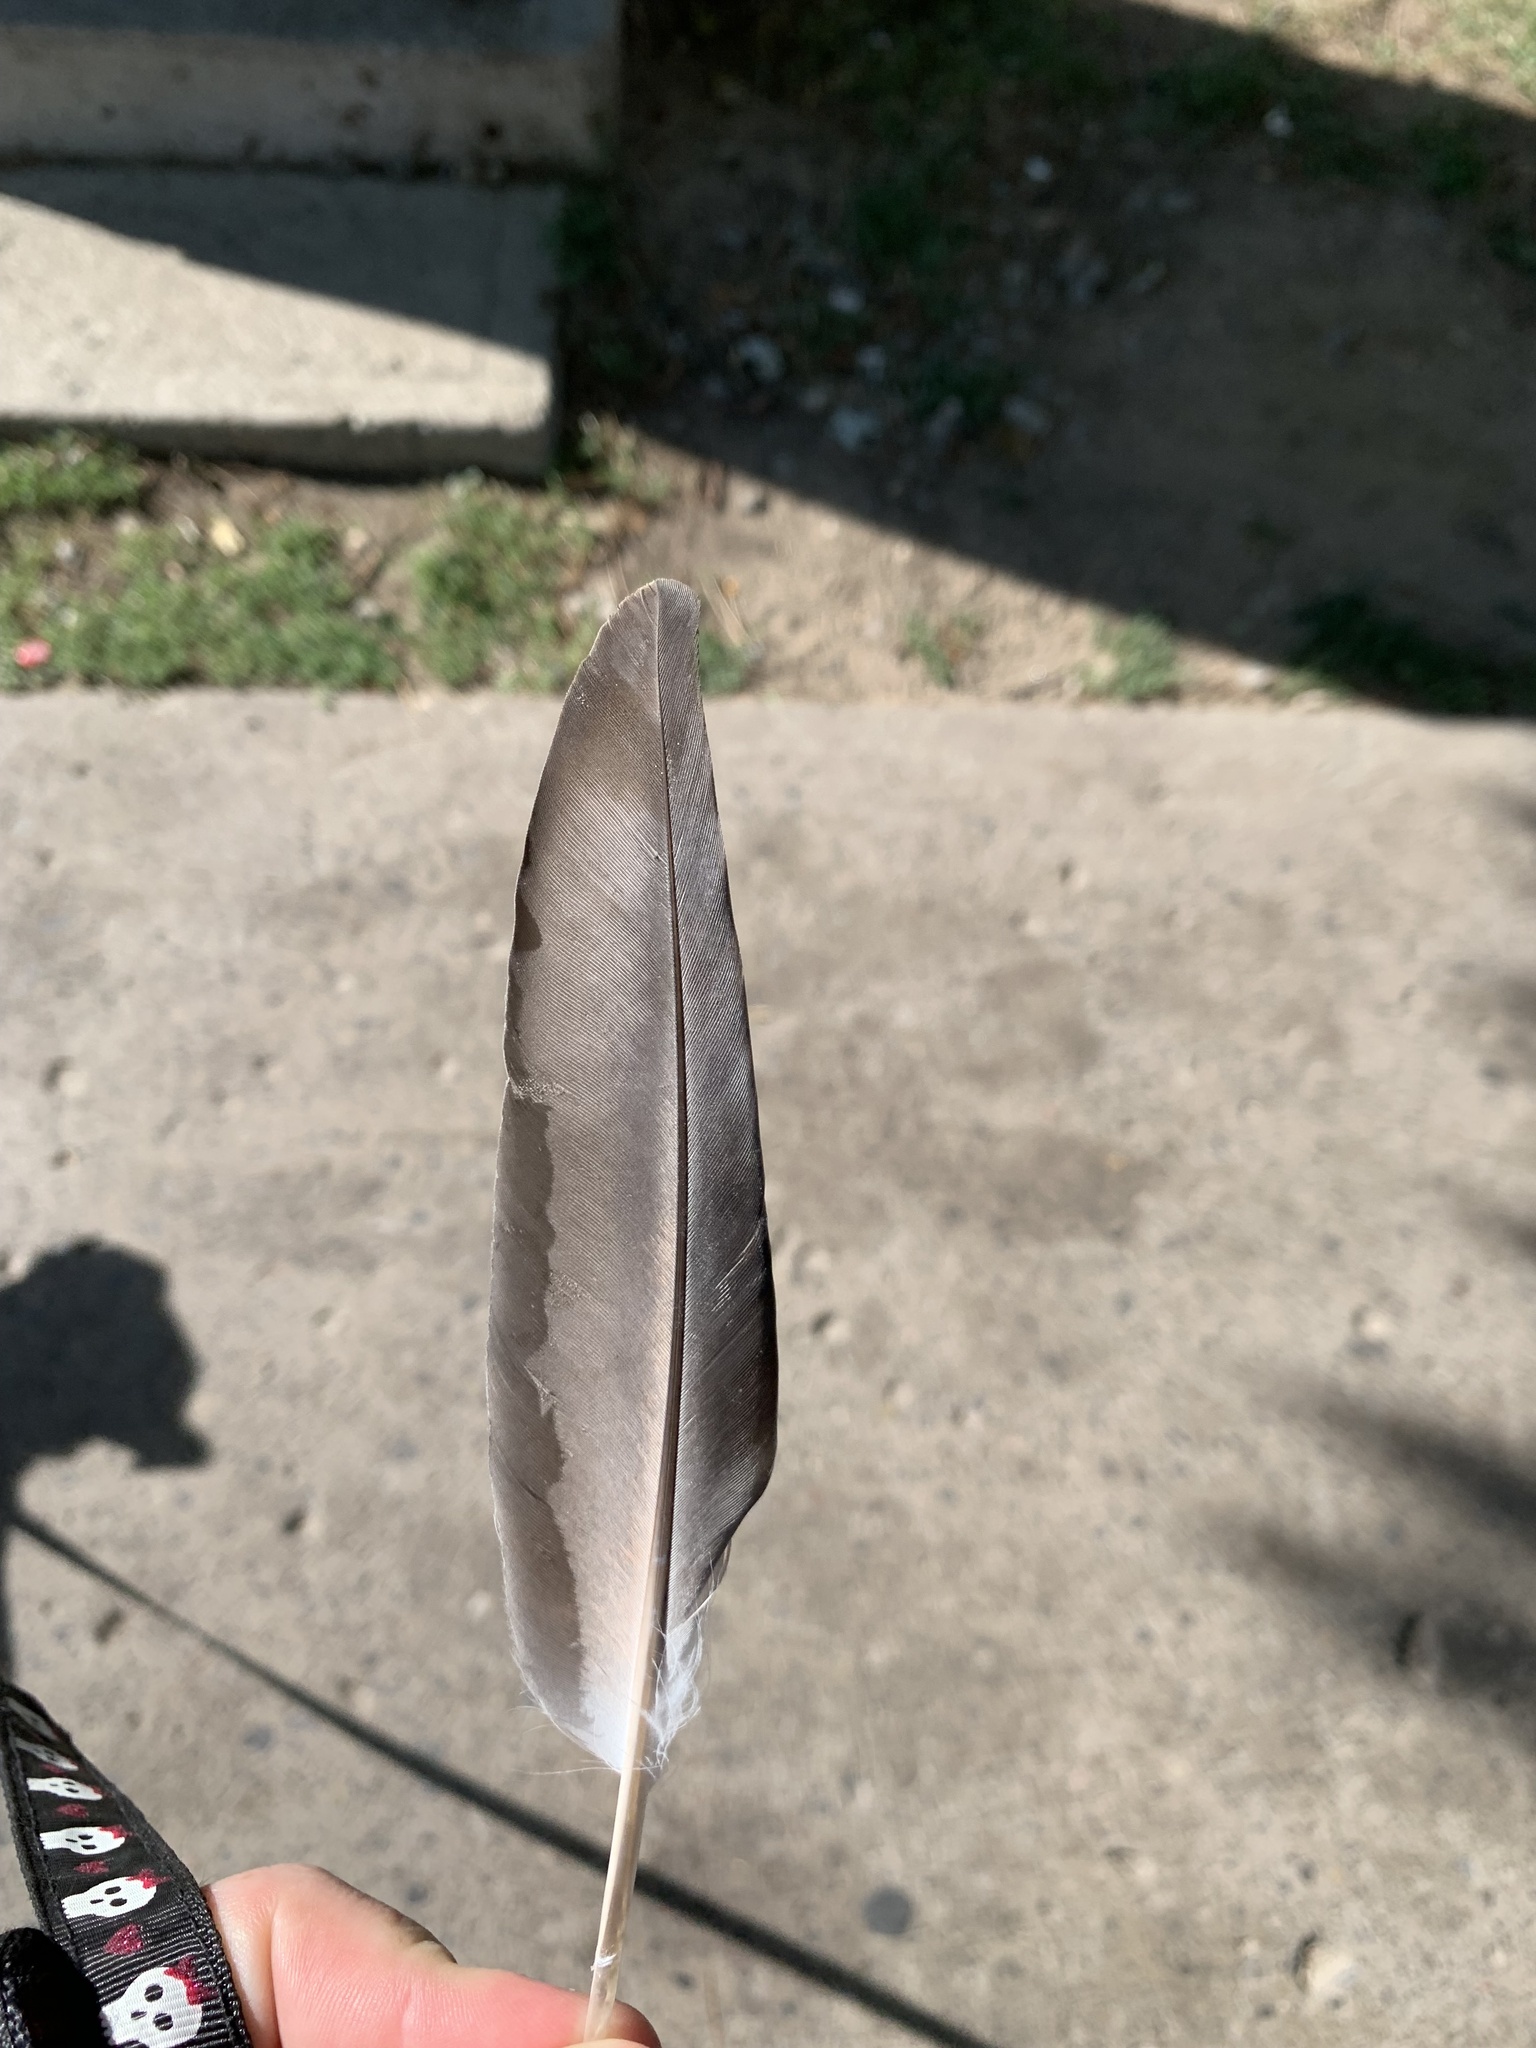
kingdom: Animalia
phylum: Chordata
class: Aves
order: Columbiformes
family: Columbidae
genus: Columba
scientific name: Columba livia
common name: Rock pigeon
